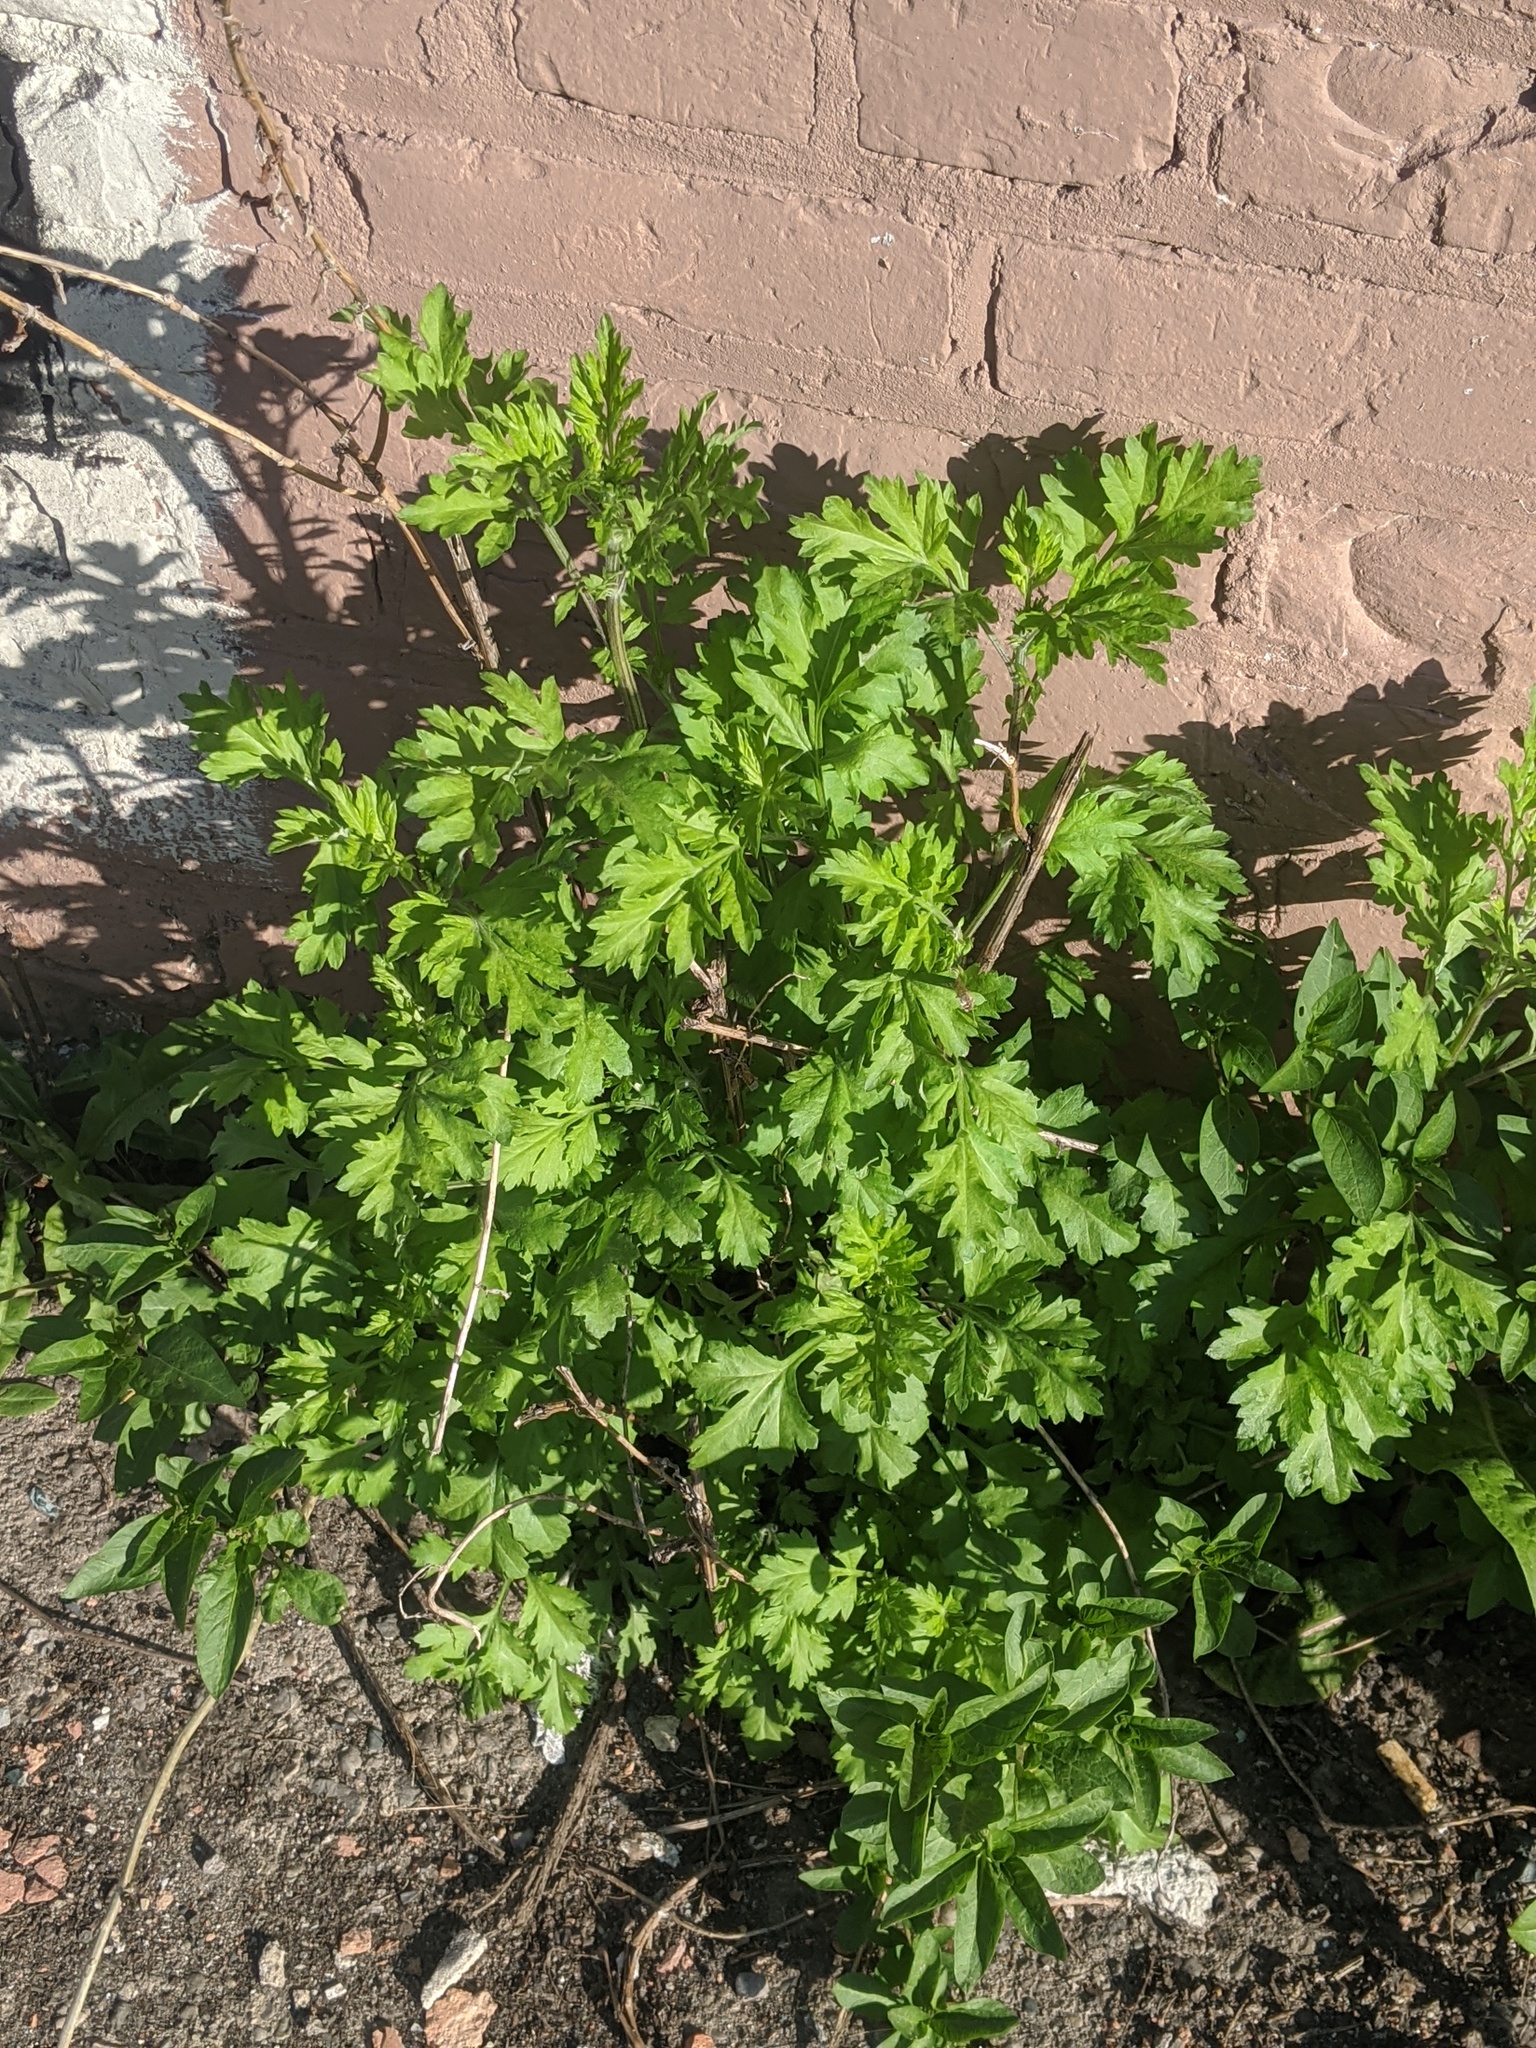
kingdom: Plantae
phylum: Tracheophyta
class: Magnoliopsida
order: Asterales
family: Asteraceae
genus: Artemisia
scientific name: Artemisia vulgaris
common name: Mugwort
